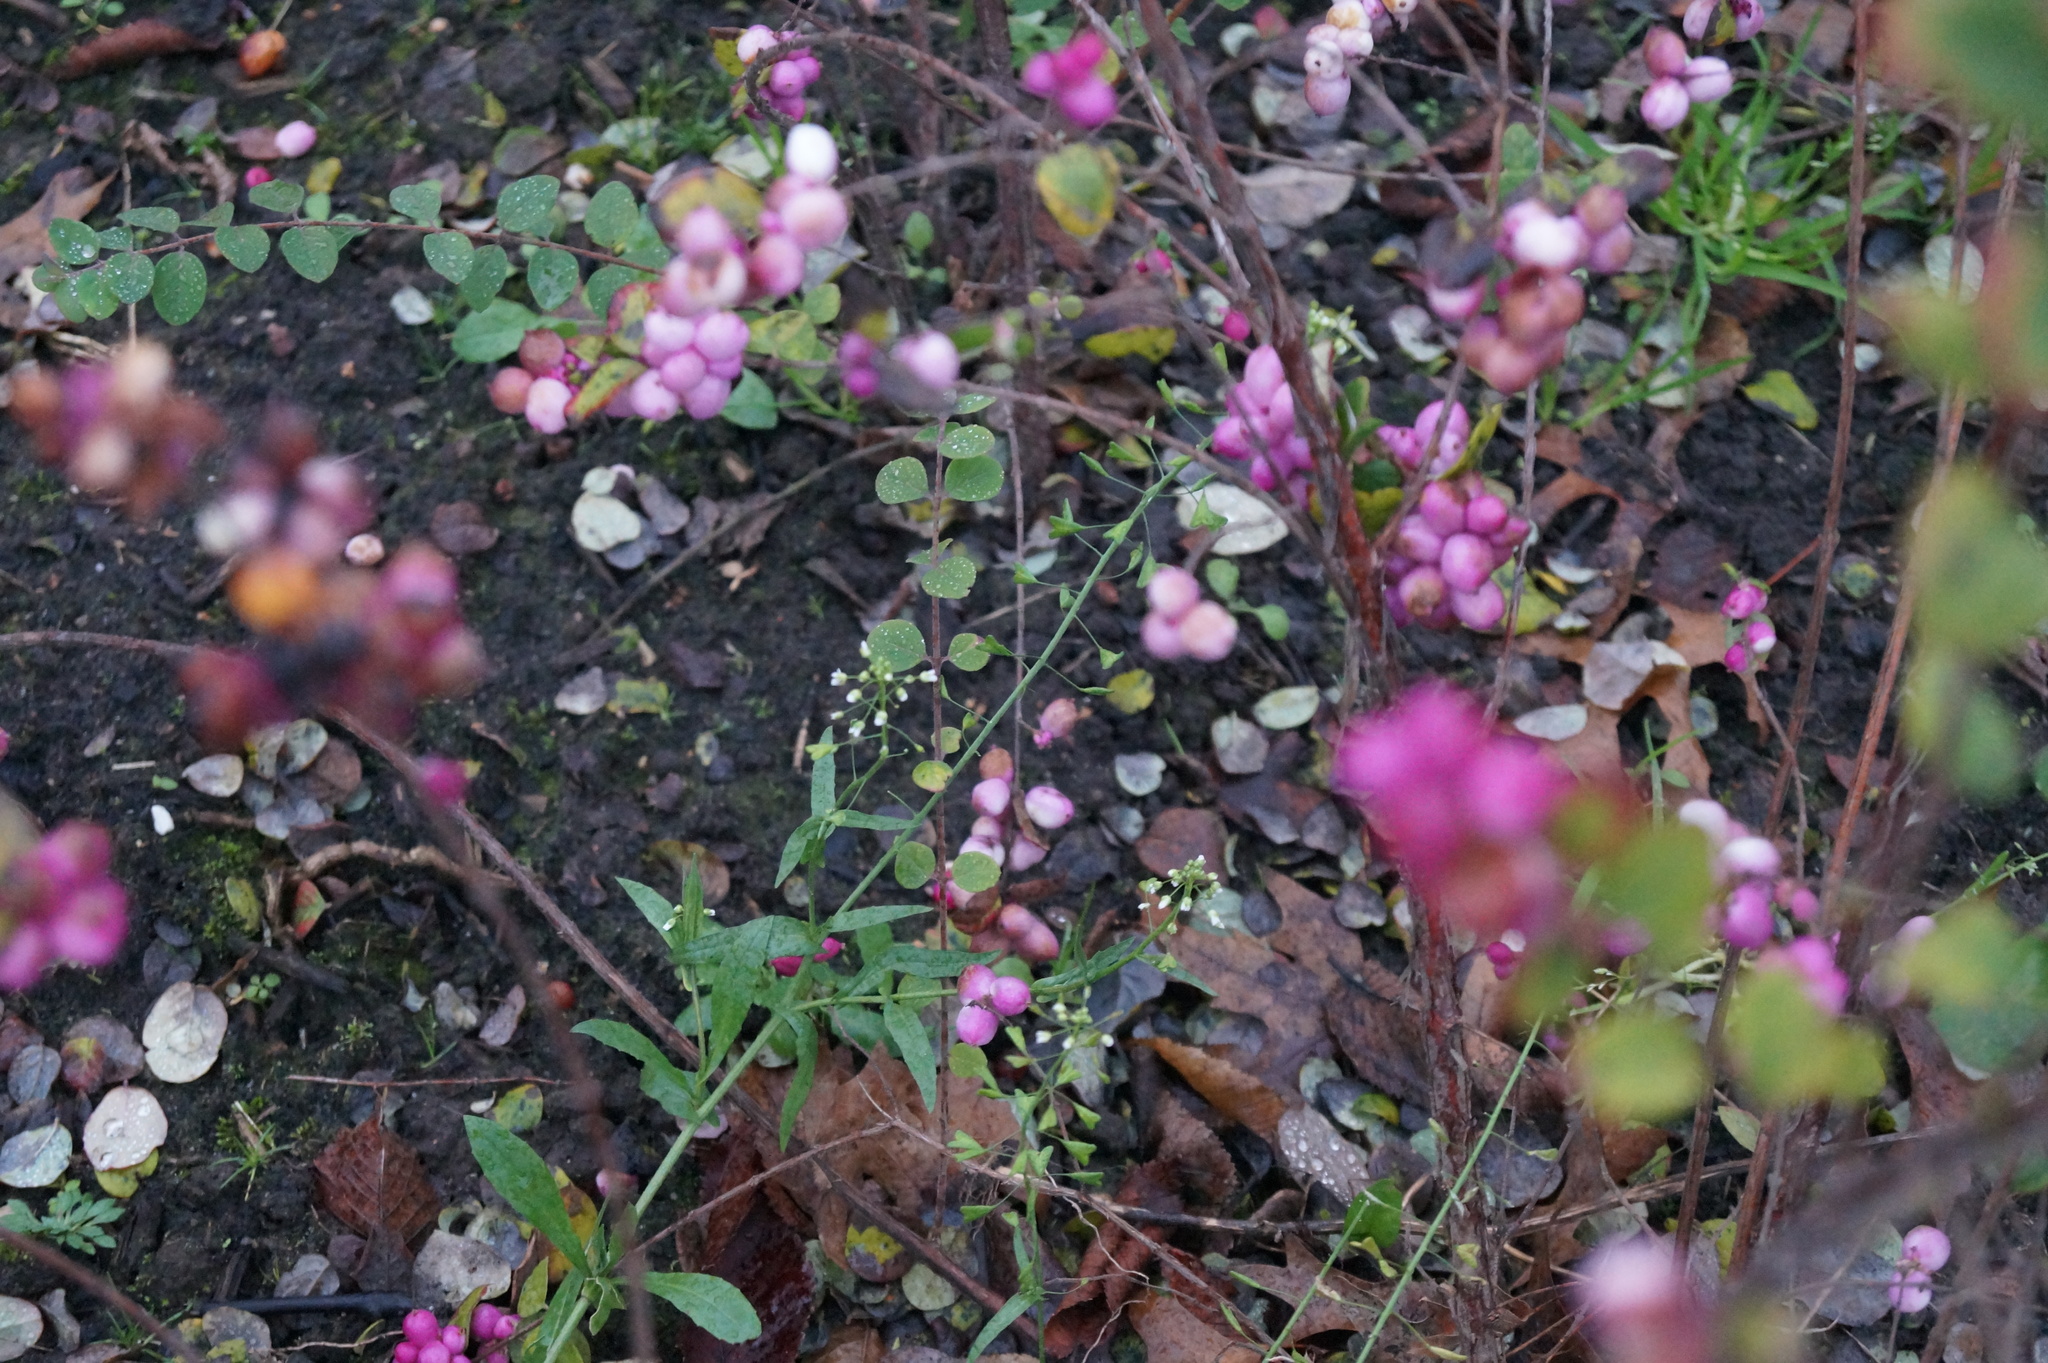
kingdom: Plantae
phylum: Tracheophyta
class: Magnoliopsida
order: Brassicales
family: Brassicaceae
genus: Capsella
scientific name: Capsella bursa-pastoris
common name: Shepherd's purse
